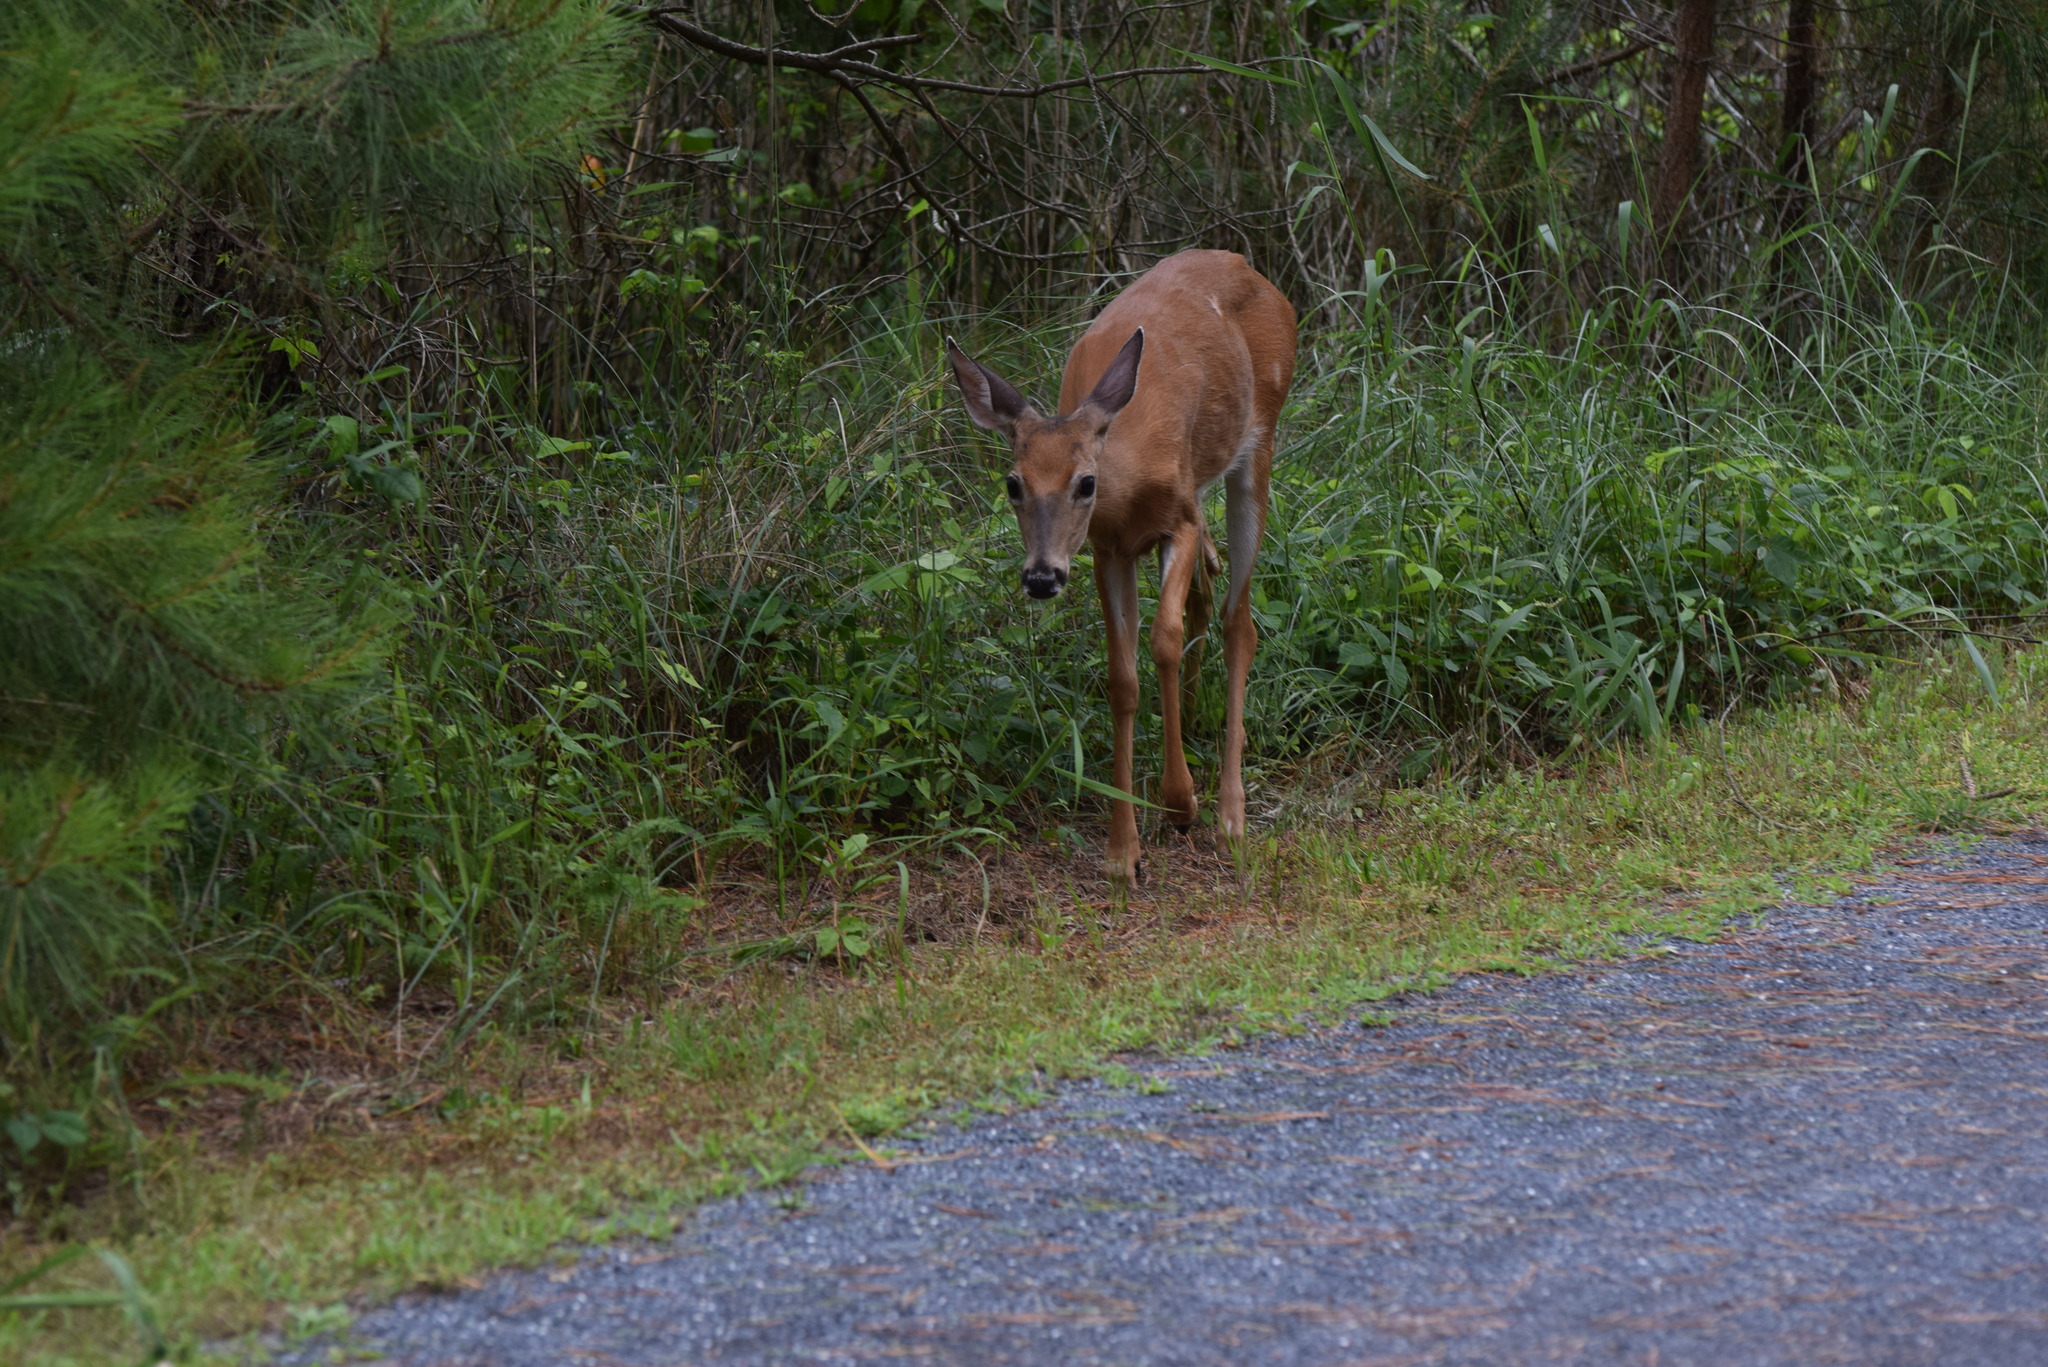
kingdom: Animalia
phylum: Chordata
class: Mammalia
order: Artiodactyla
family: Cervidae
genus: Odocoileus
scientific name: Odocoileus virginianus
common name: White-tailed deer
